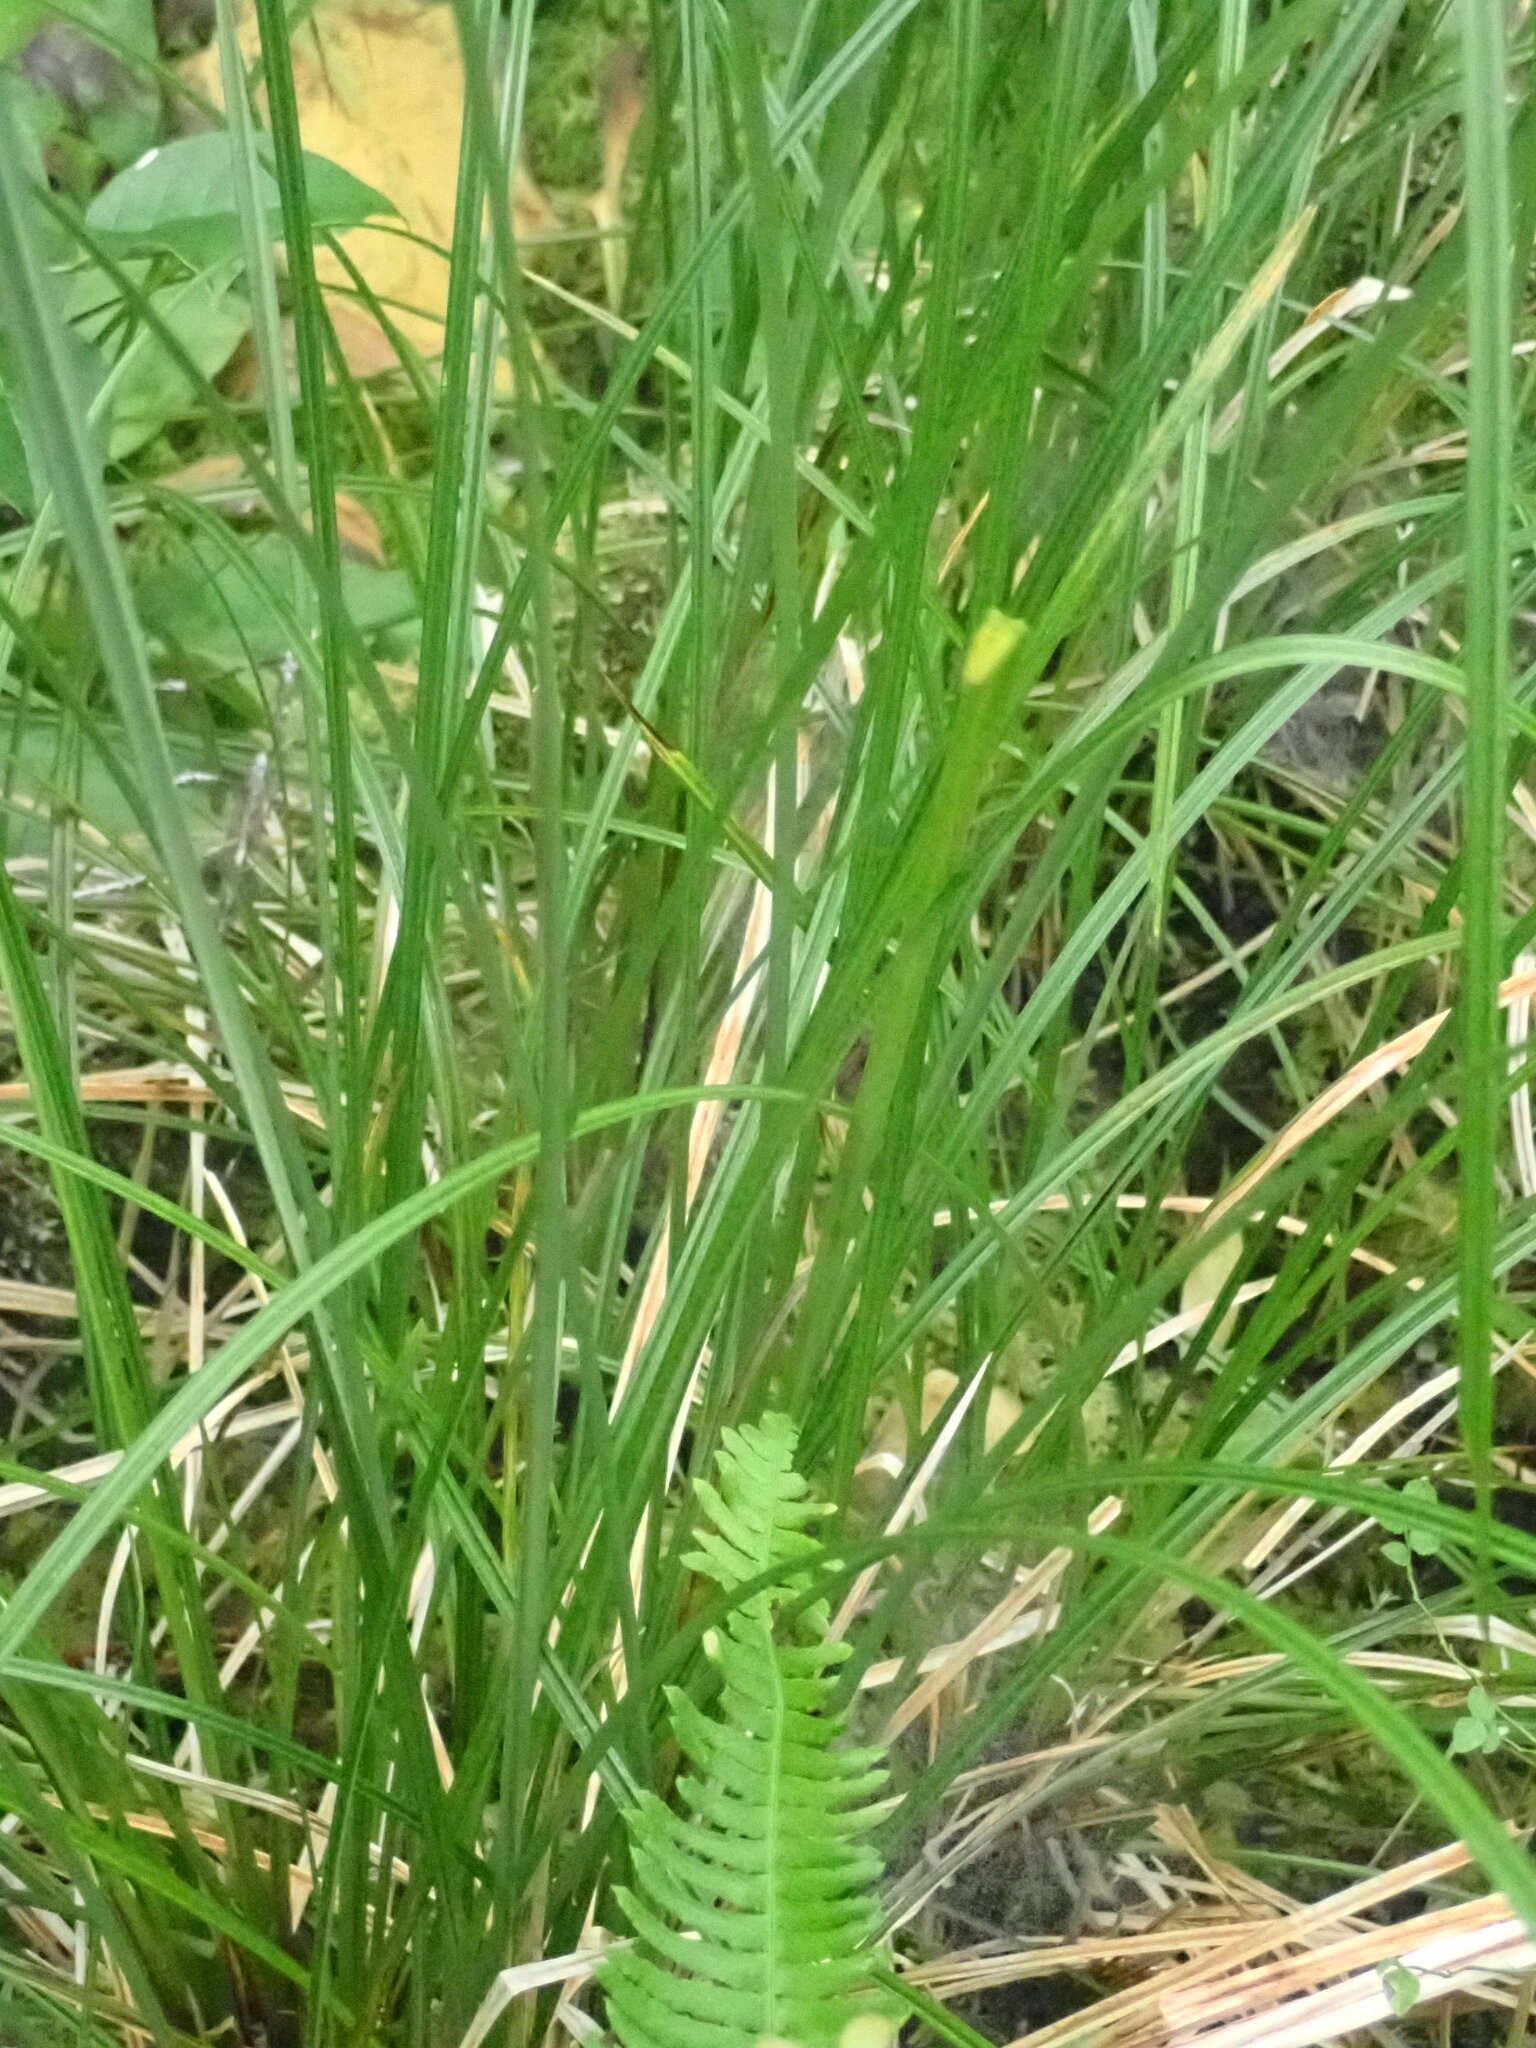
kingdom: Plantae
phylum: Tracheophyta
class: Liliopsida
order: Poales
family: Cyperaceae
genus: Carex
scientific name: Carex obnupta
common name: Slough sedge
